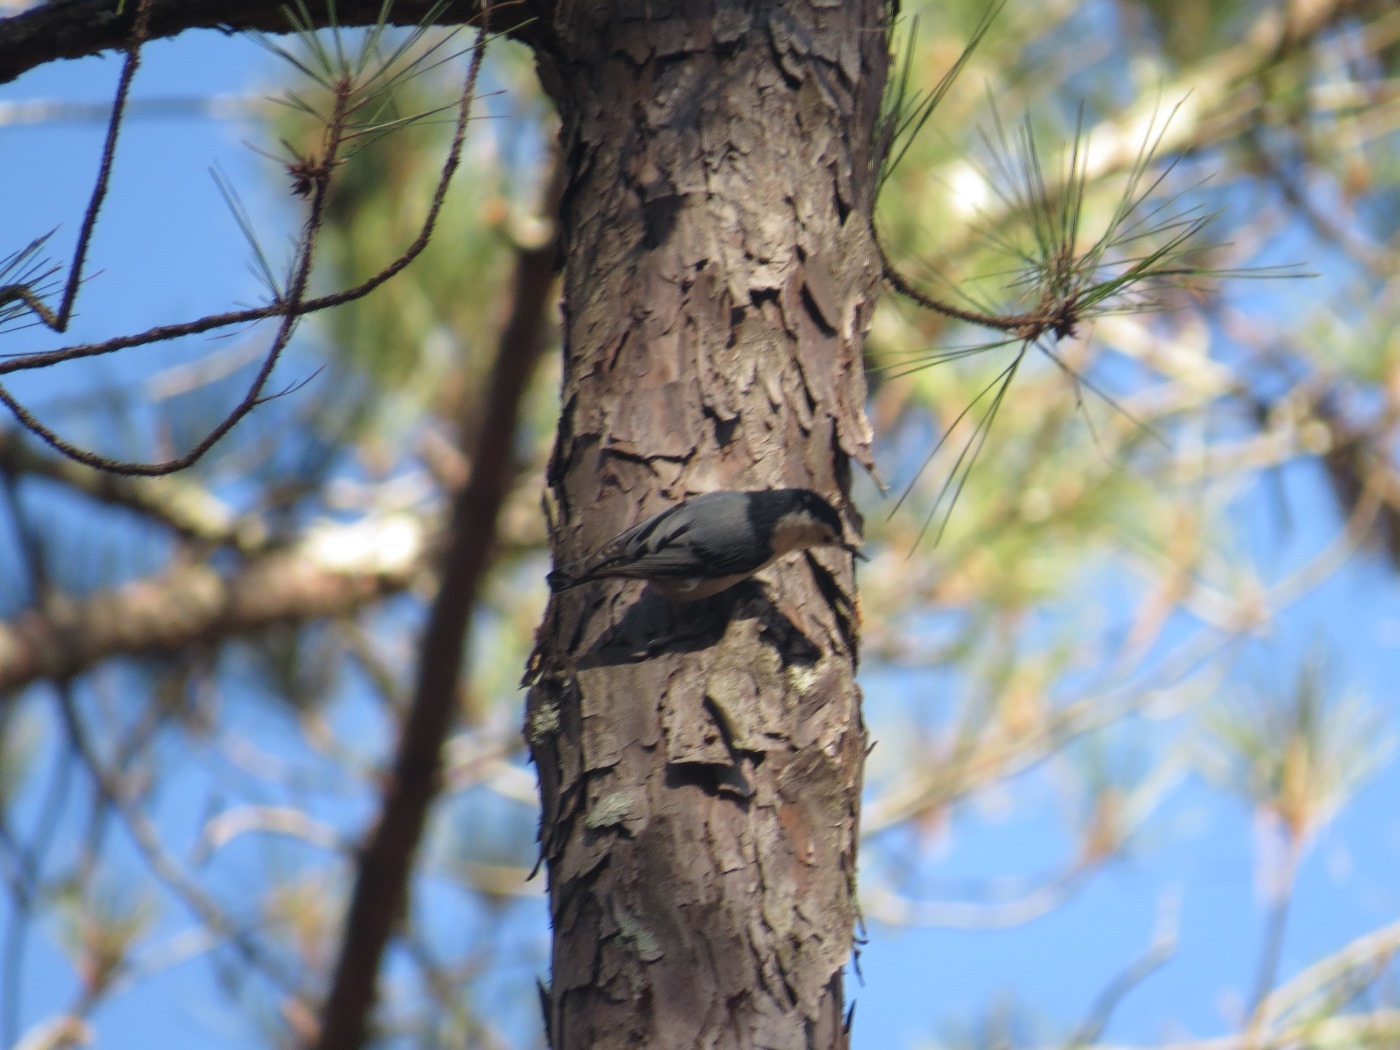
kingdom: Animalia
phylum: Chordata
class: Aves
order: Passeriformes
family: Sittidae
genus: Sitta
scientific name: Sitta carolinensis
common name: White-breasted nuthatch
